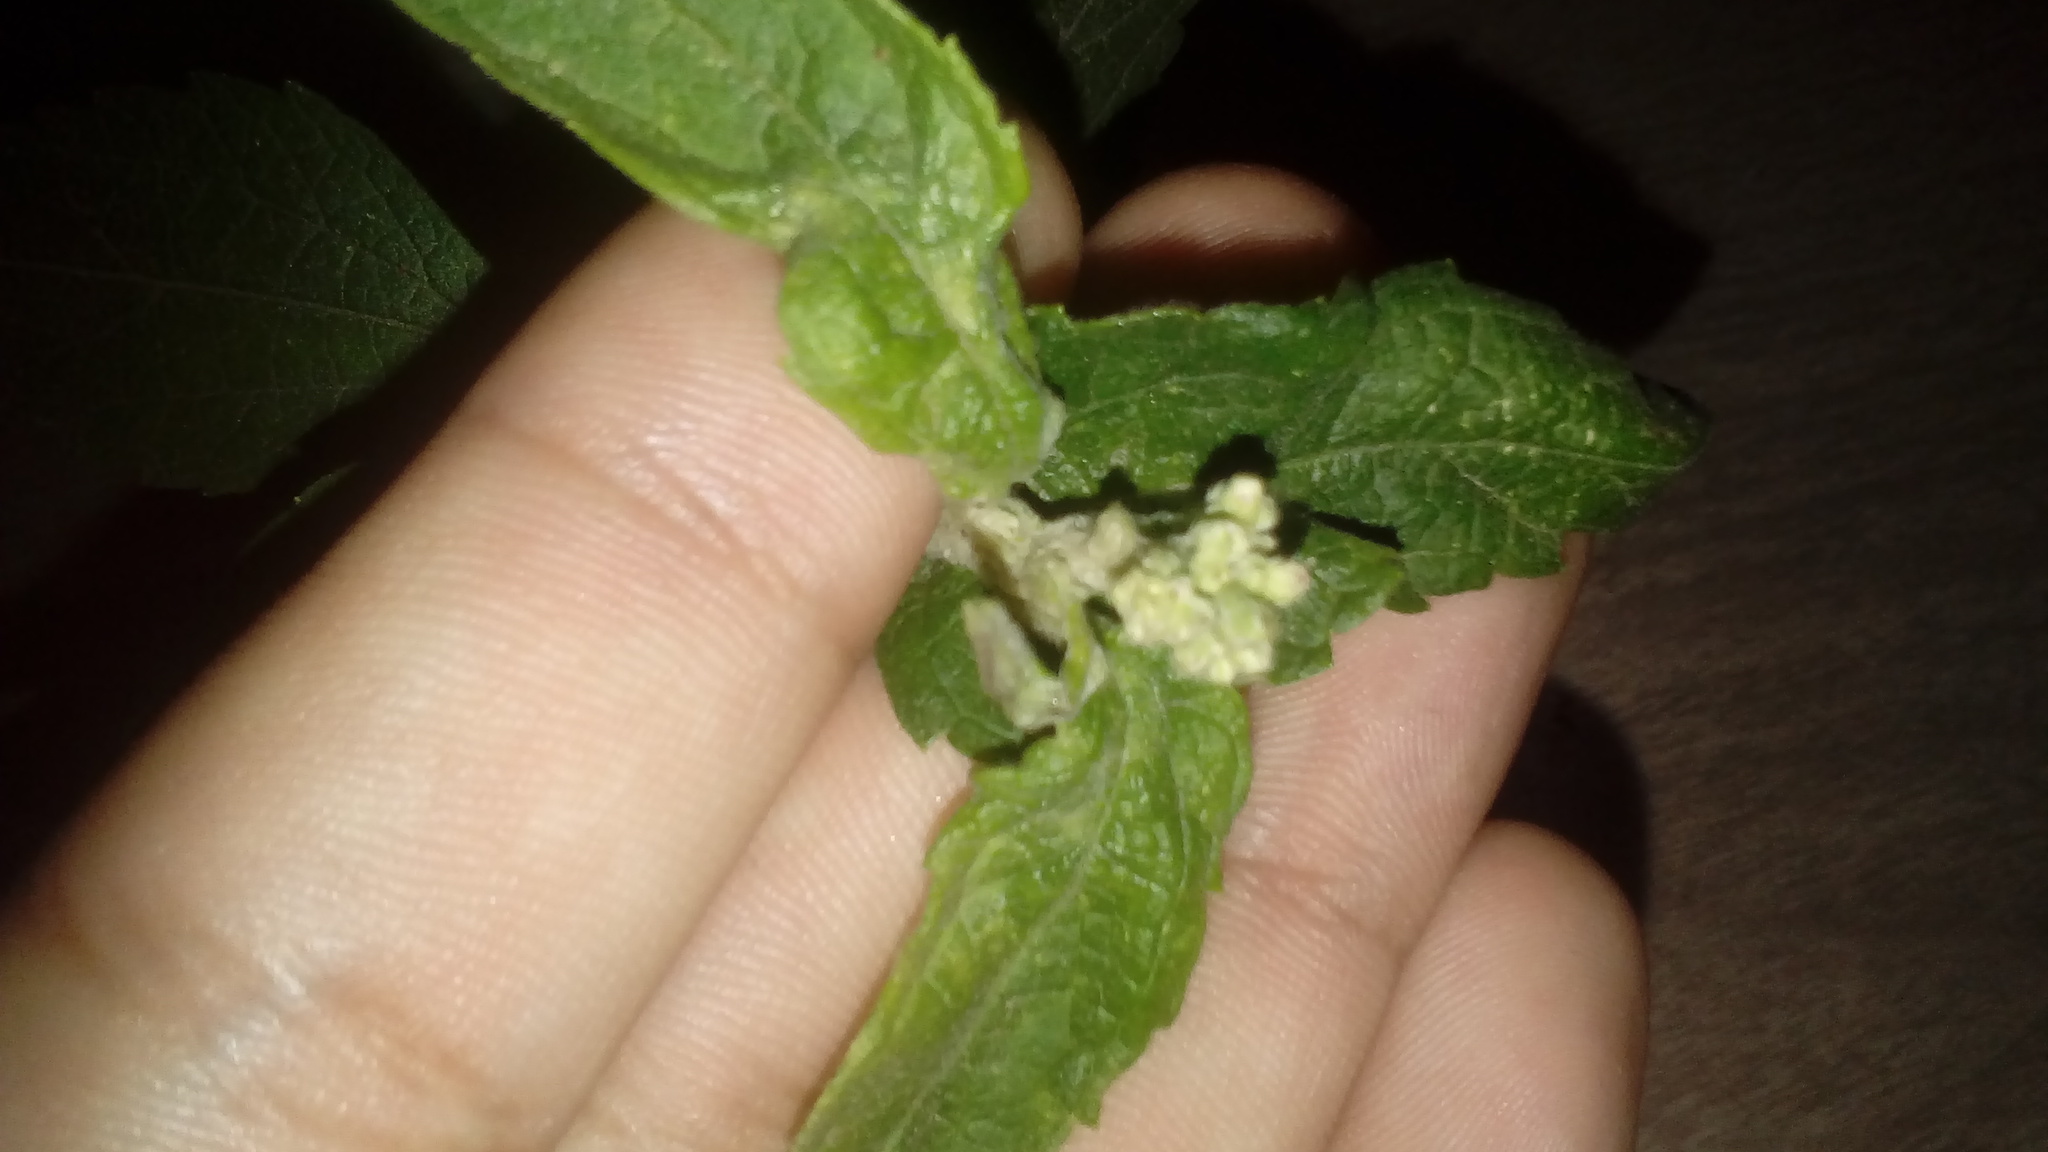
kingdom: Plantae
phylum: Tracheophyta
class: Magnoliopsida
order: Asterales
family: Asteraceae
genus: Austroeupatorium
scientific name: Austroeupatorium inulifolium
